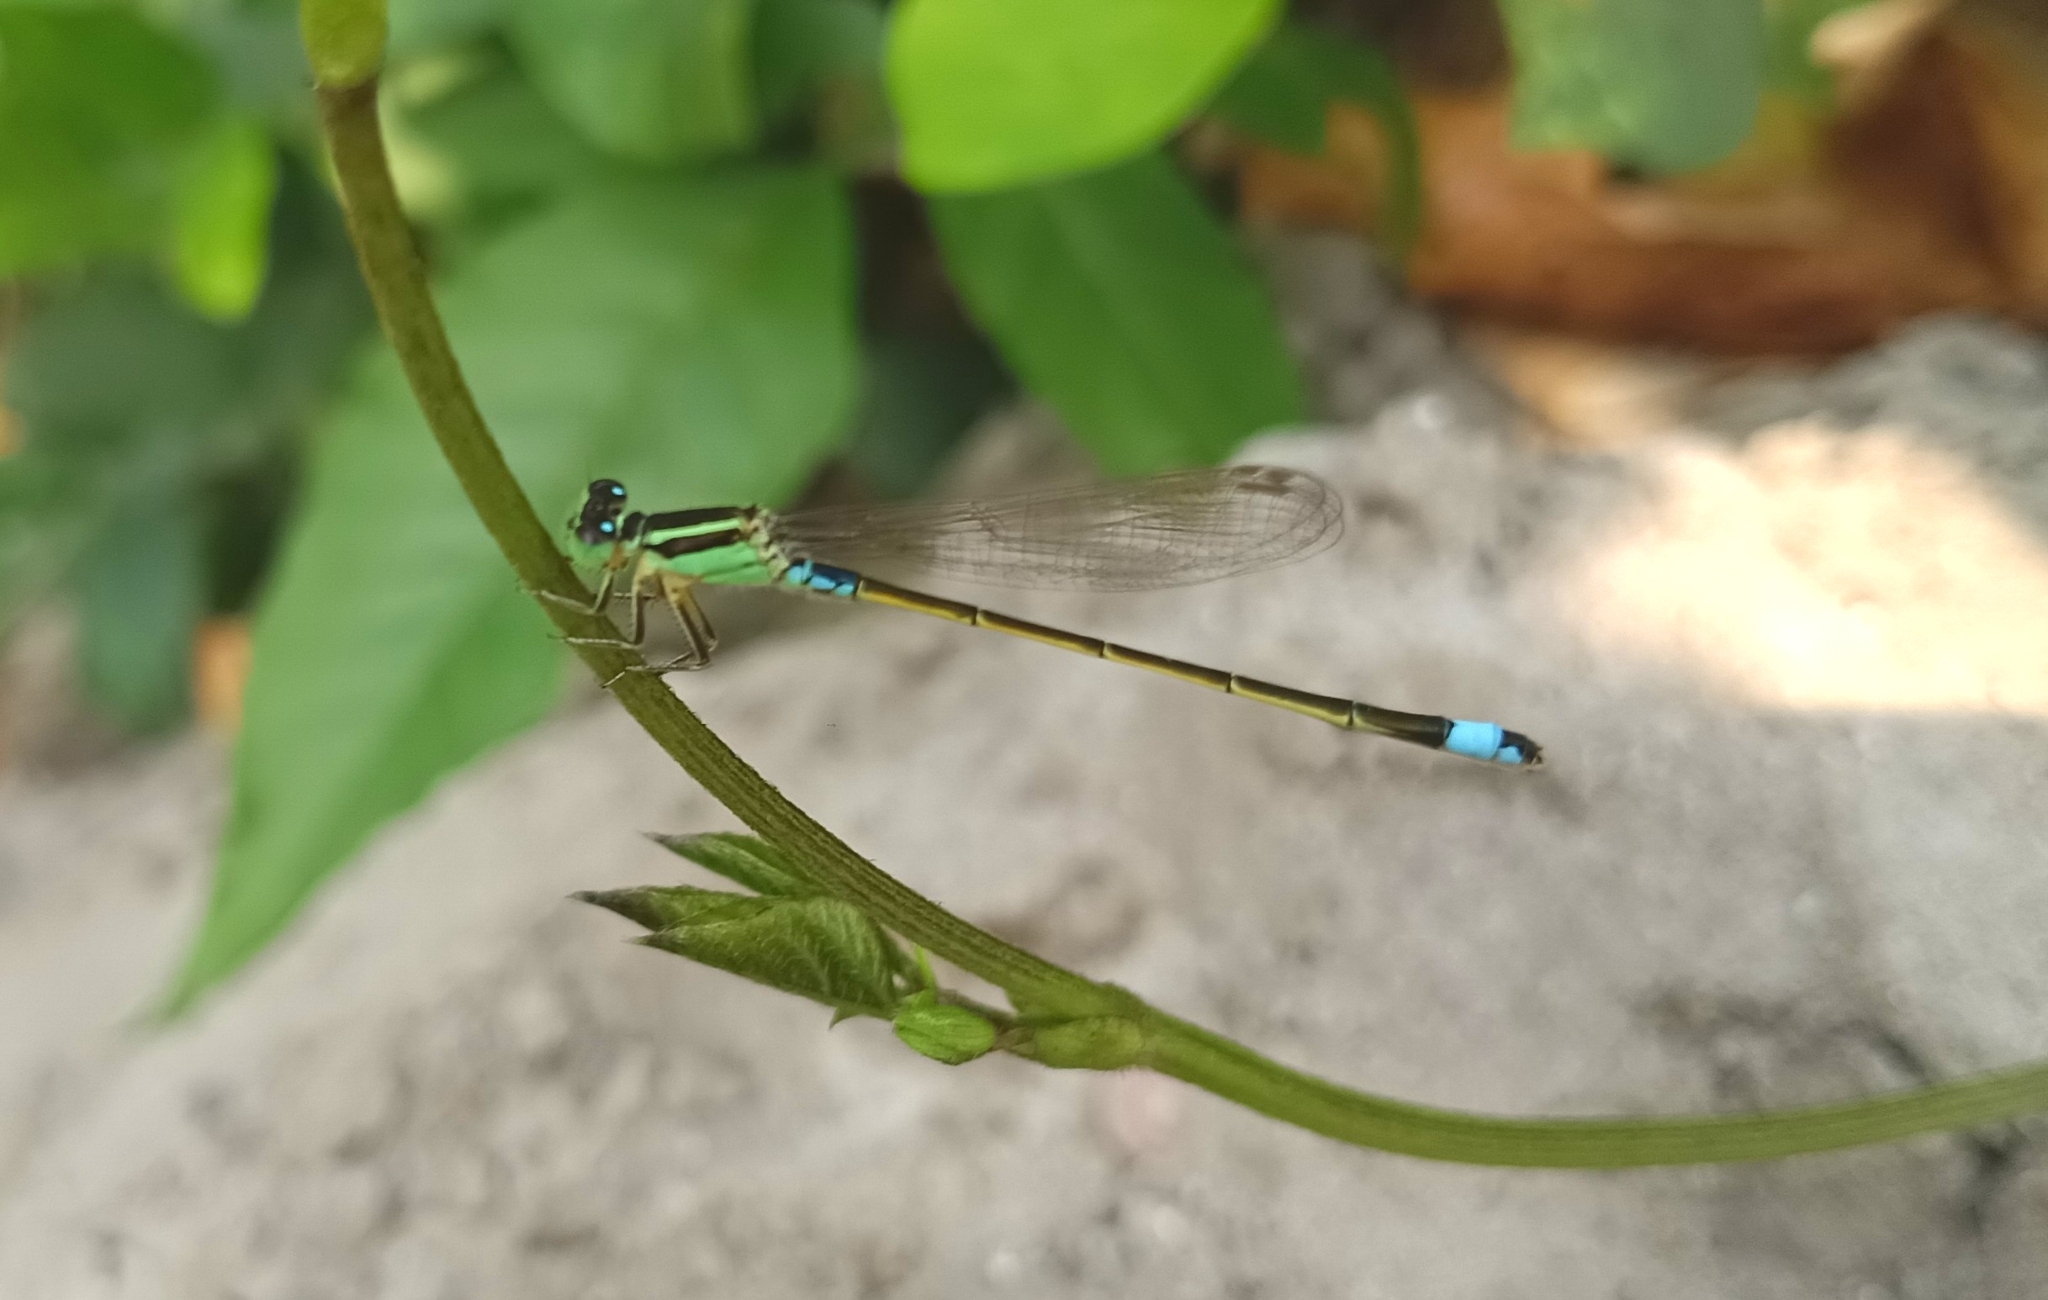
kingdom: Animalia
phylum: Arthropoda
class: Insecta
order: Odonata
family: Coenagrionidae
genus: Ischnura
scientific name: Ischnura senegalensis
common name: Tropical bluetail
